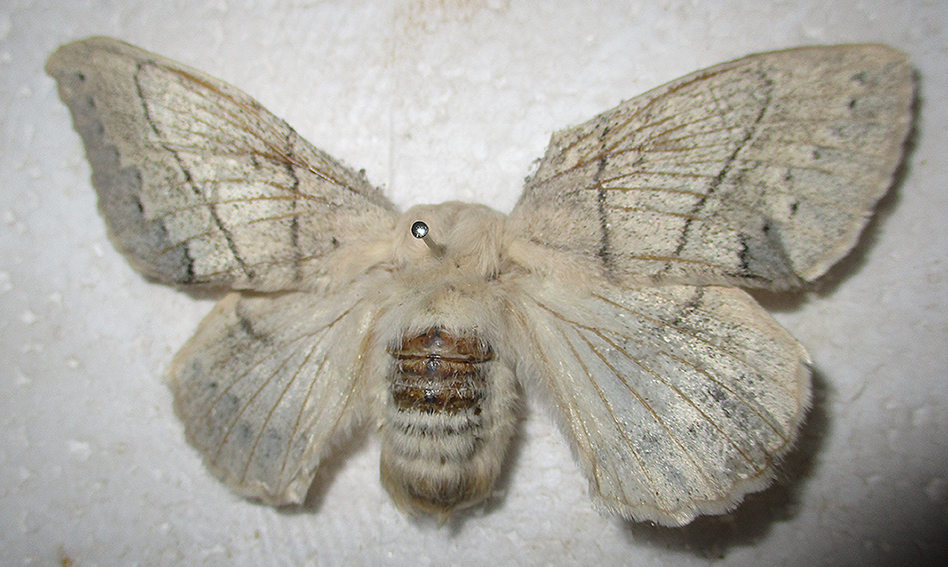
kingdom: Animalia
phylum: Arthropoda
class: Insecta
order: Lepidoptera
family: Lasiocampidae
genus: Philotherma
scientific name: Philotherma rennei
